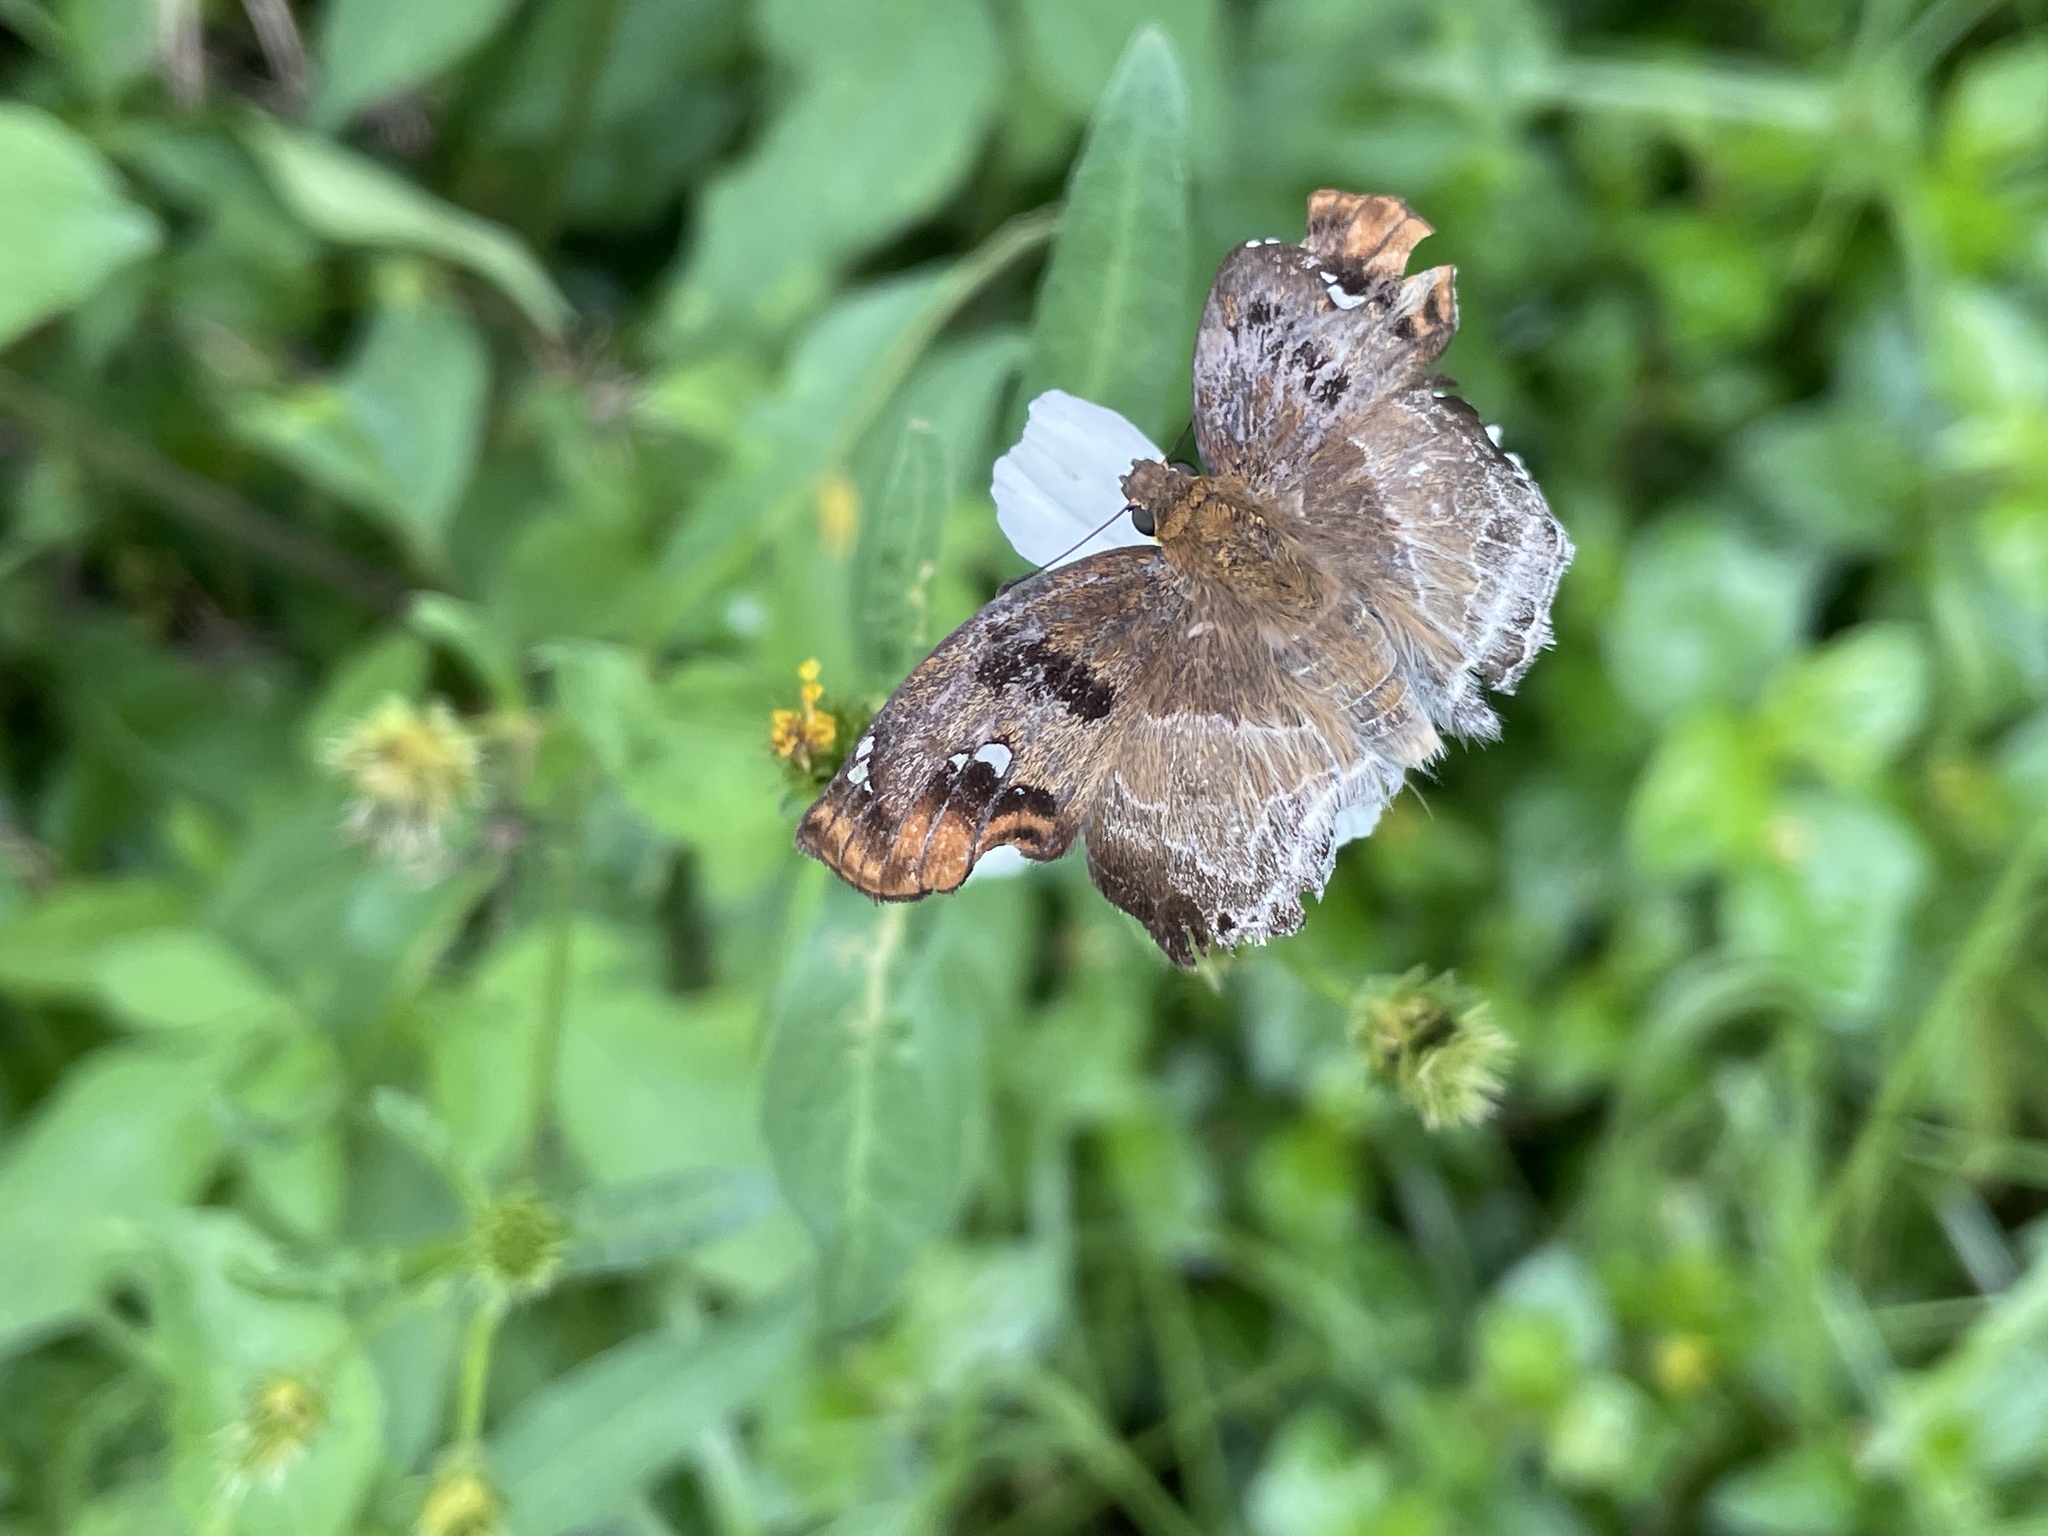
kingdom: Animalia
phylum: Arthropoda
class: Insecta
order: Lepidoptera
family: Hesperiidae
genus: Odontoptilum
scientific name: Odontoptilum angulata
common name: Chestnut banded angle
